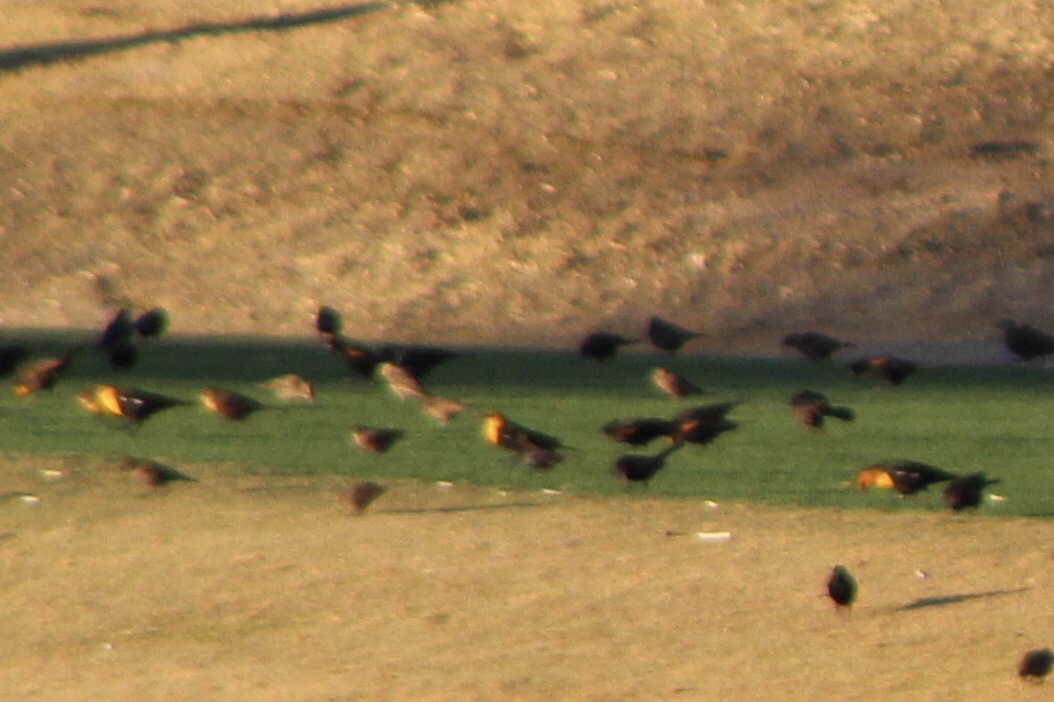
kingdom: Animalia
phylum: Chordata
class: Aves
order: Passeriformes
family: Icteridae
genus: Xanthocephalus
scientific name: Xanthocephalus xanthocephalus
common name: Yellow-headed blackbird
